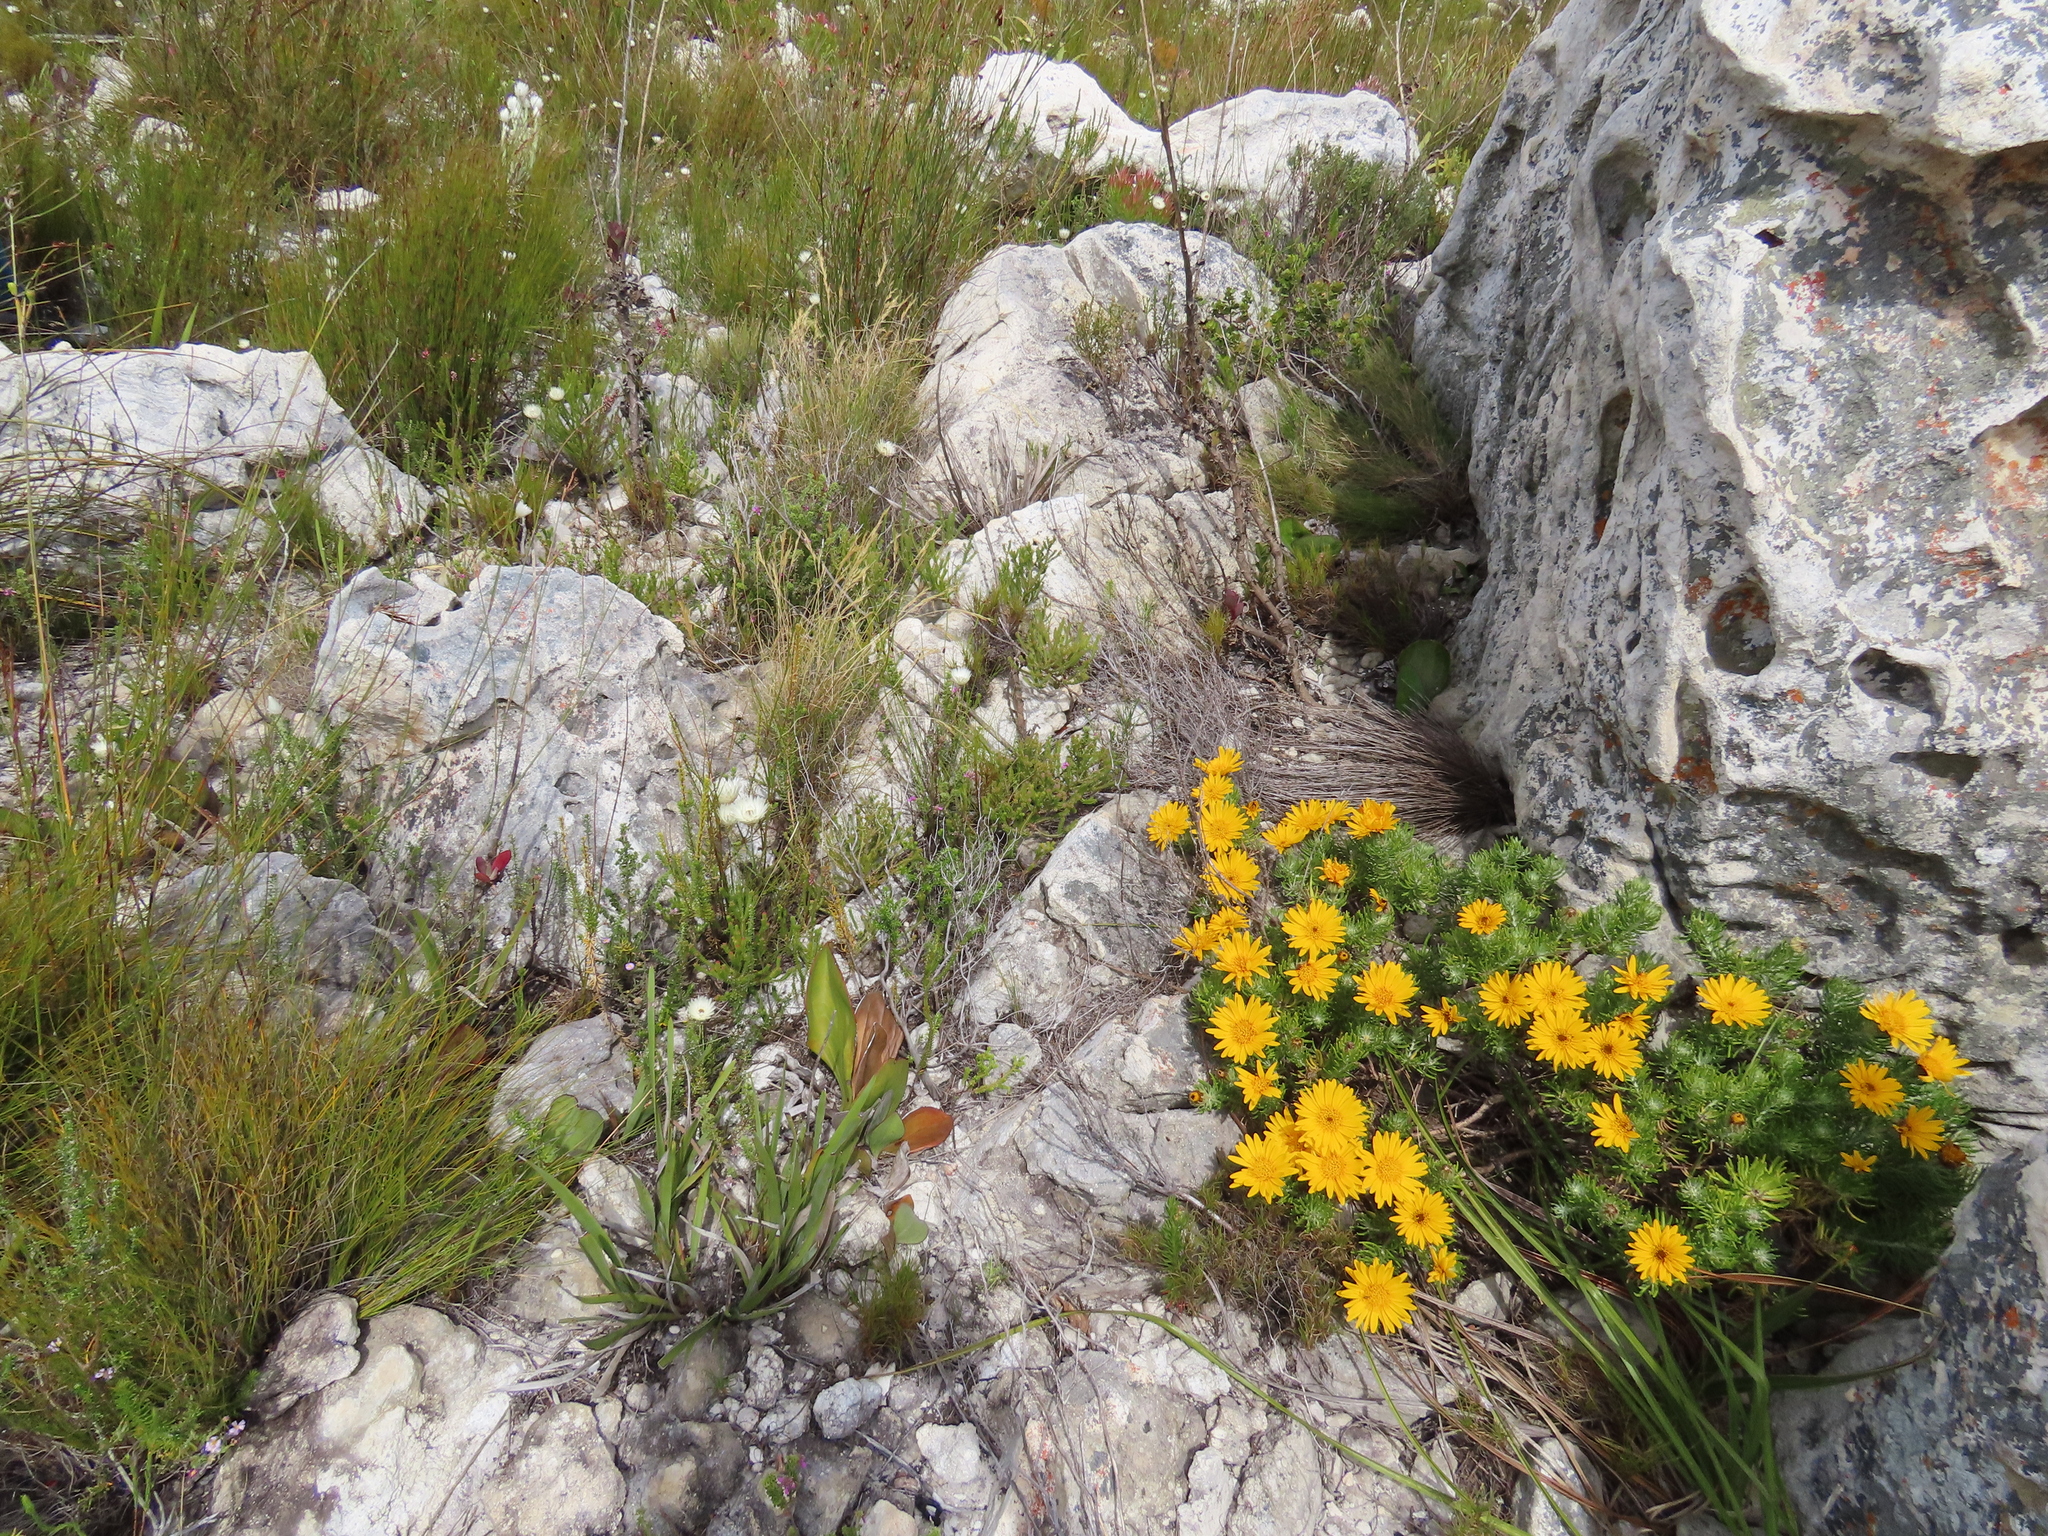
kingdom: Plantae
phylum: Tracheophyta
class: Magnoliopsida
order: Asterales
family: Asteraceae
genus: Heterolepis
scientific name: Heterolepis aliena
